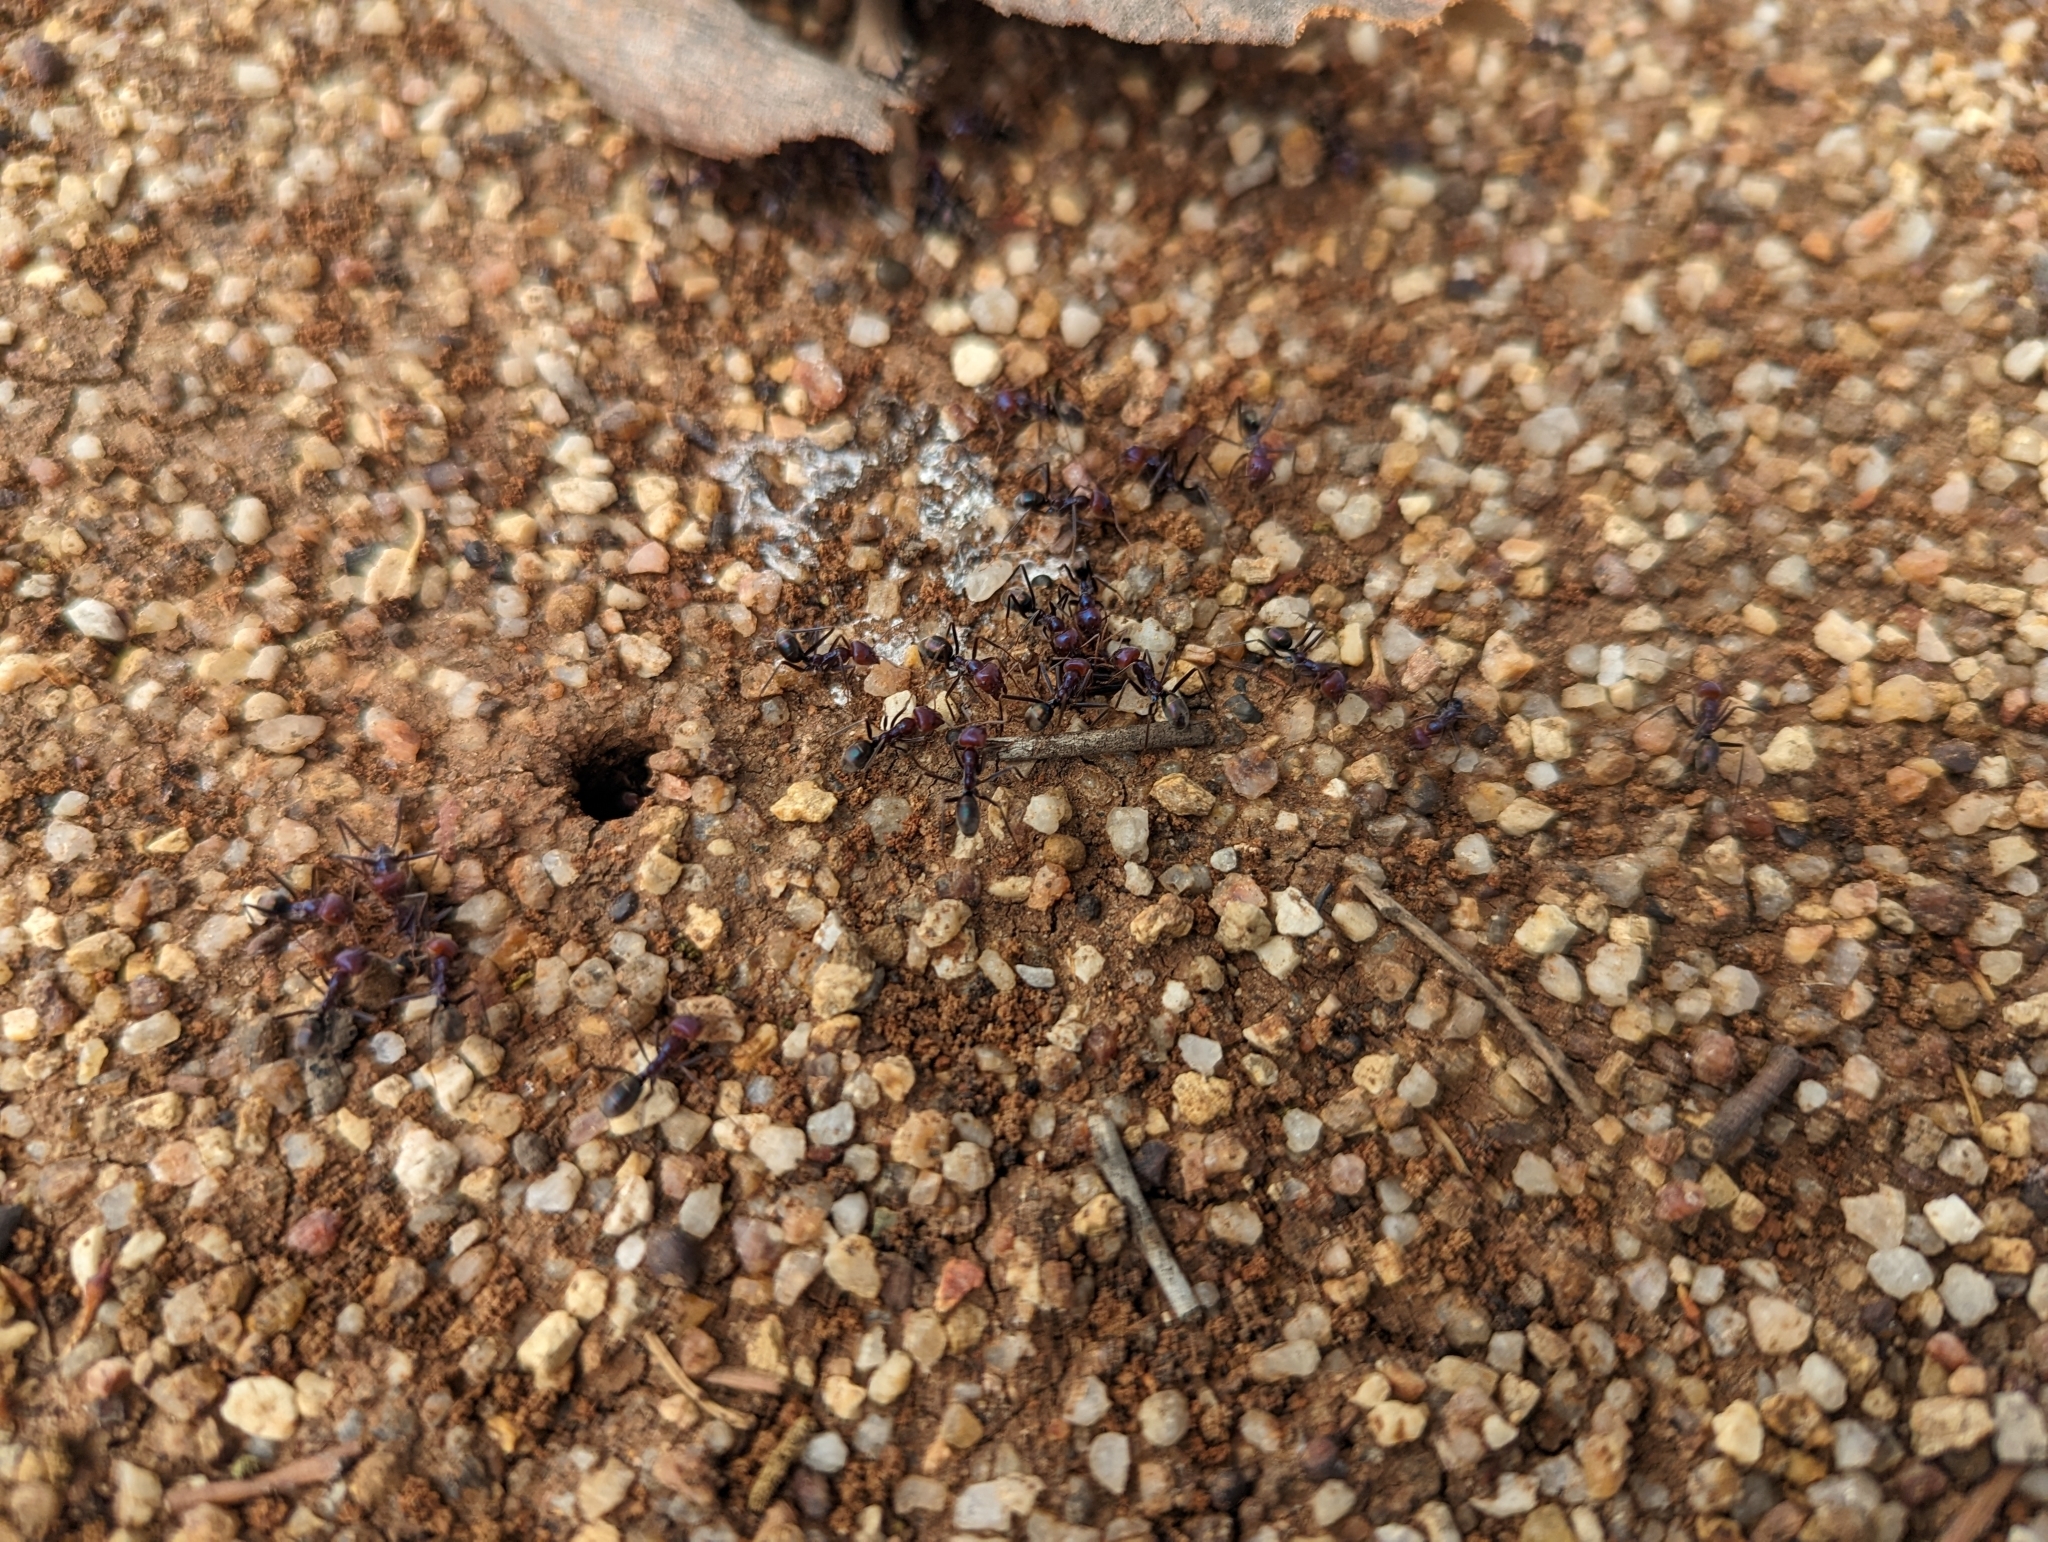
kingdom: Animalia
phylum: Arthropoda
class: Insecta
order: Hymenoptera
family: Formicidae
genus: Iridomyrmex
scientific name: Iridomyrmex purpureus
